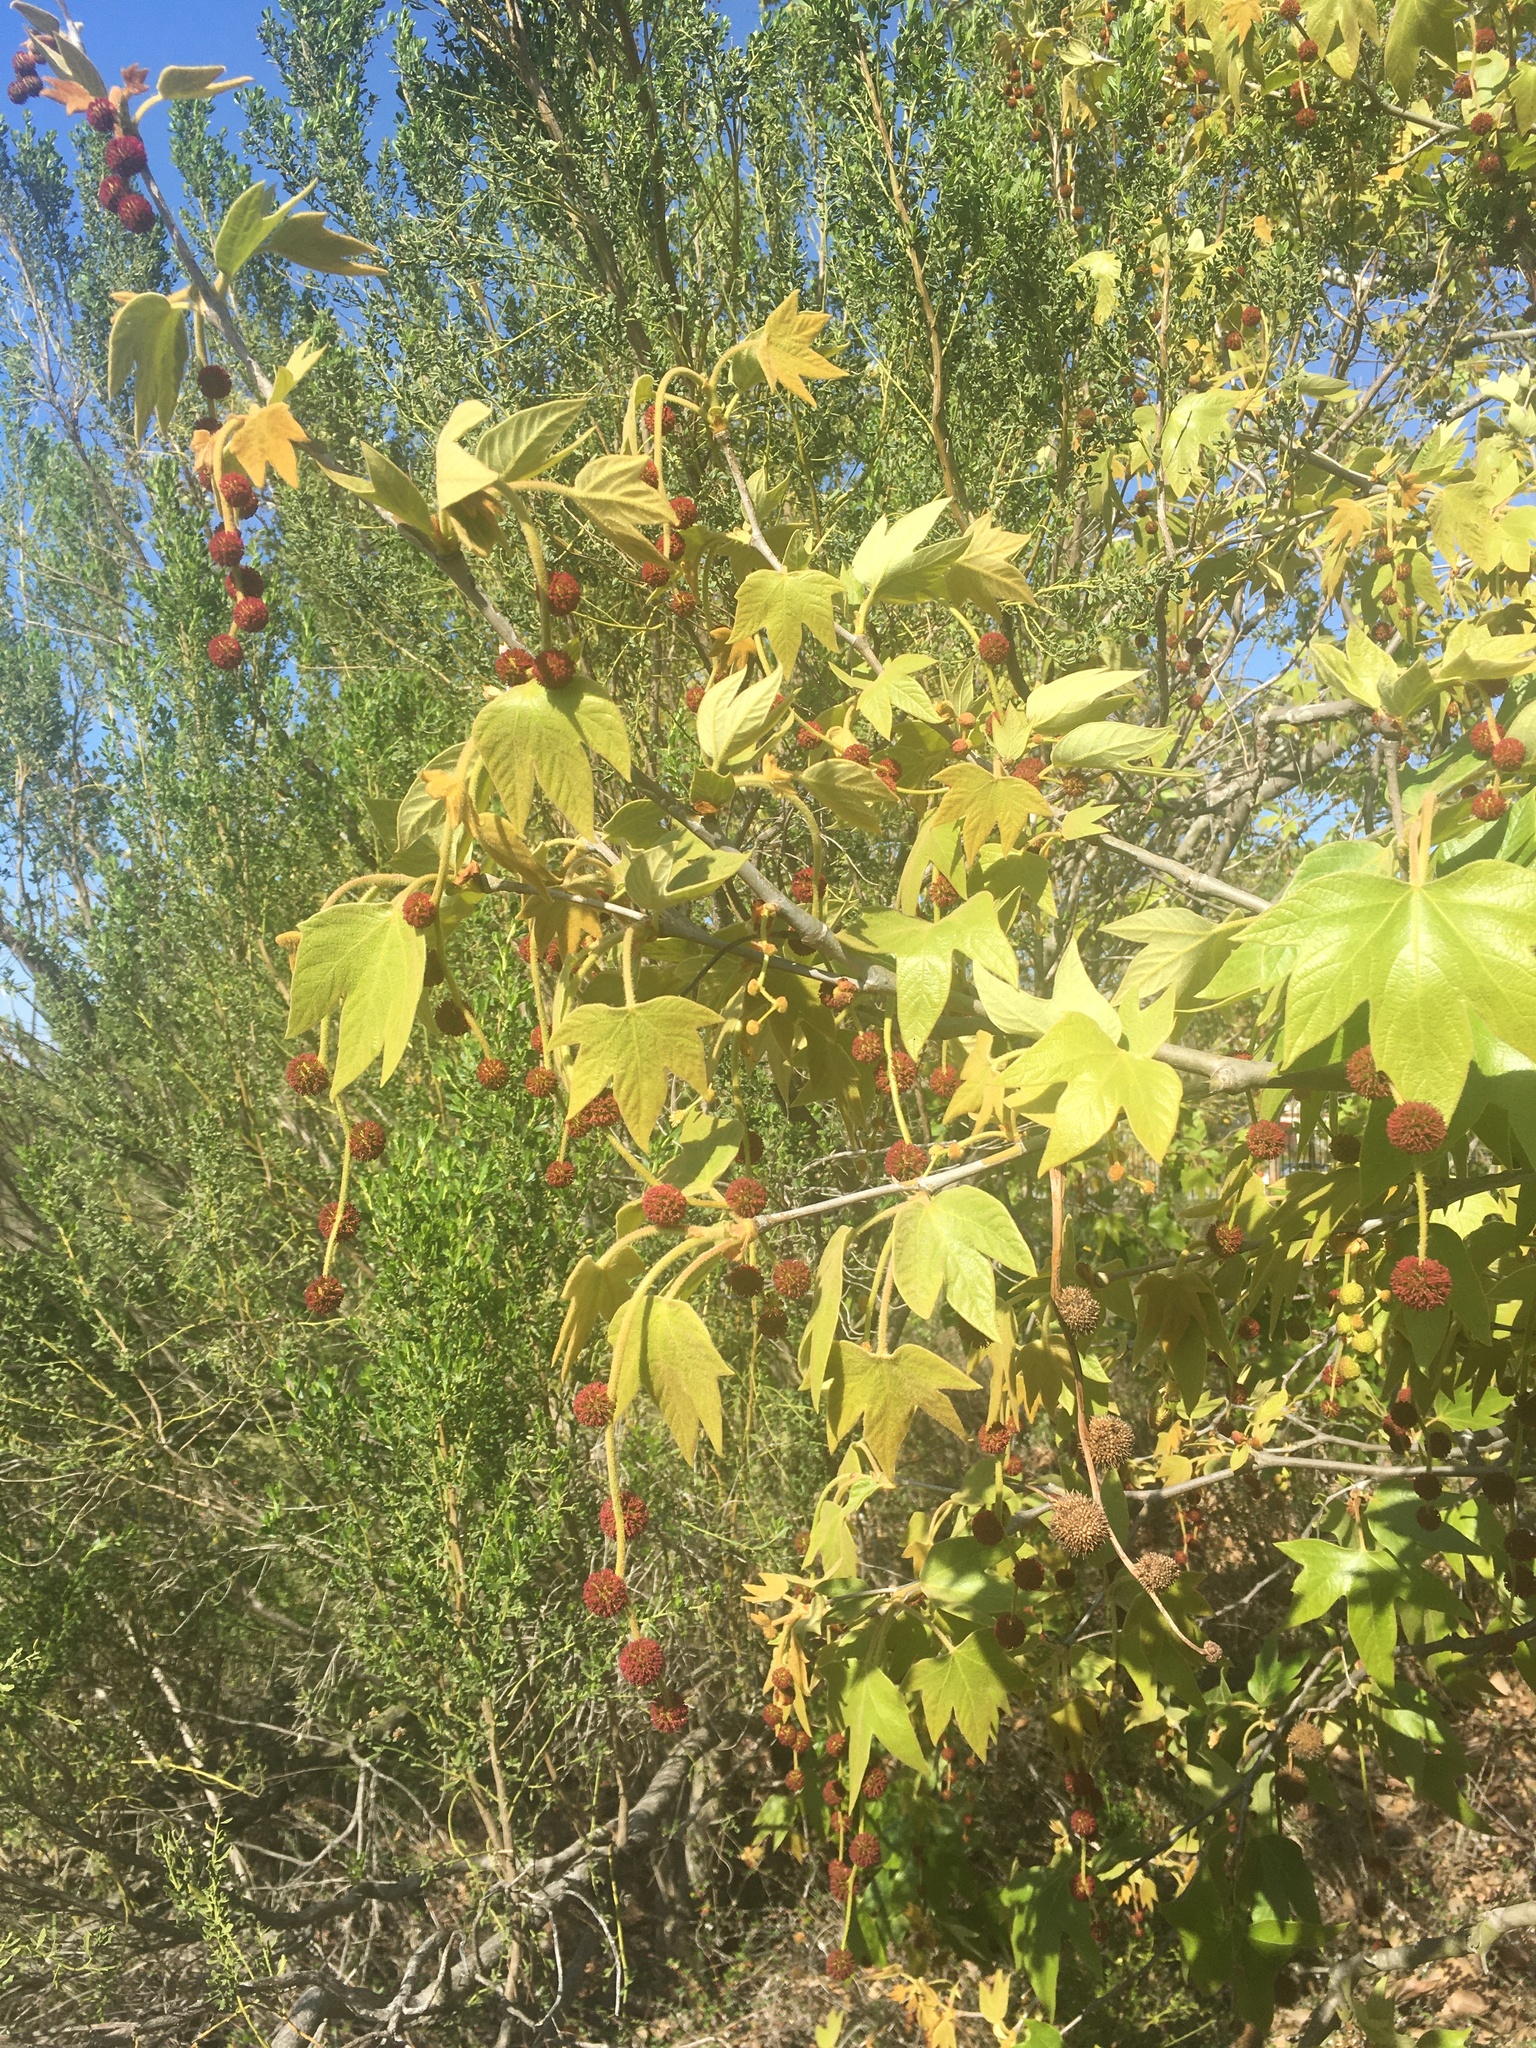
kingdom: Plantae
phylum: Tracheophyta
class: Magnoliopsida
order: Proteales
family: Platanaceae
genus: Platanus
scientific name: Platanus racemosa
